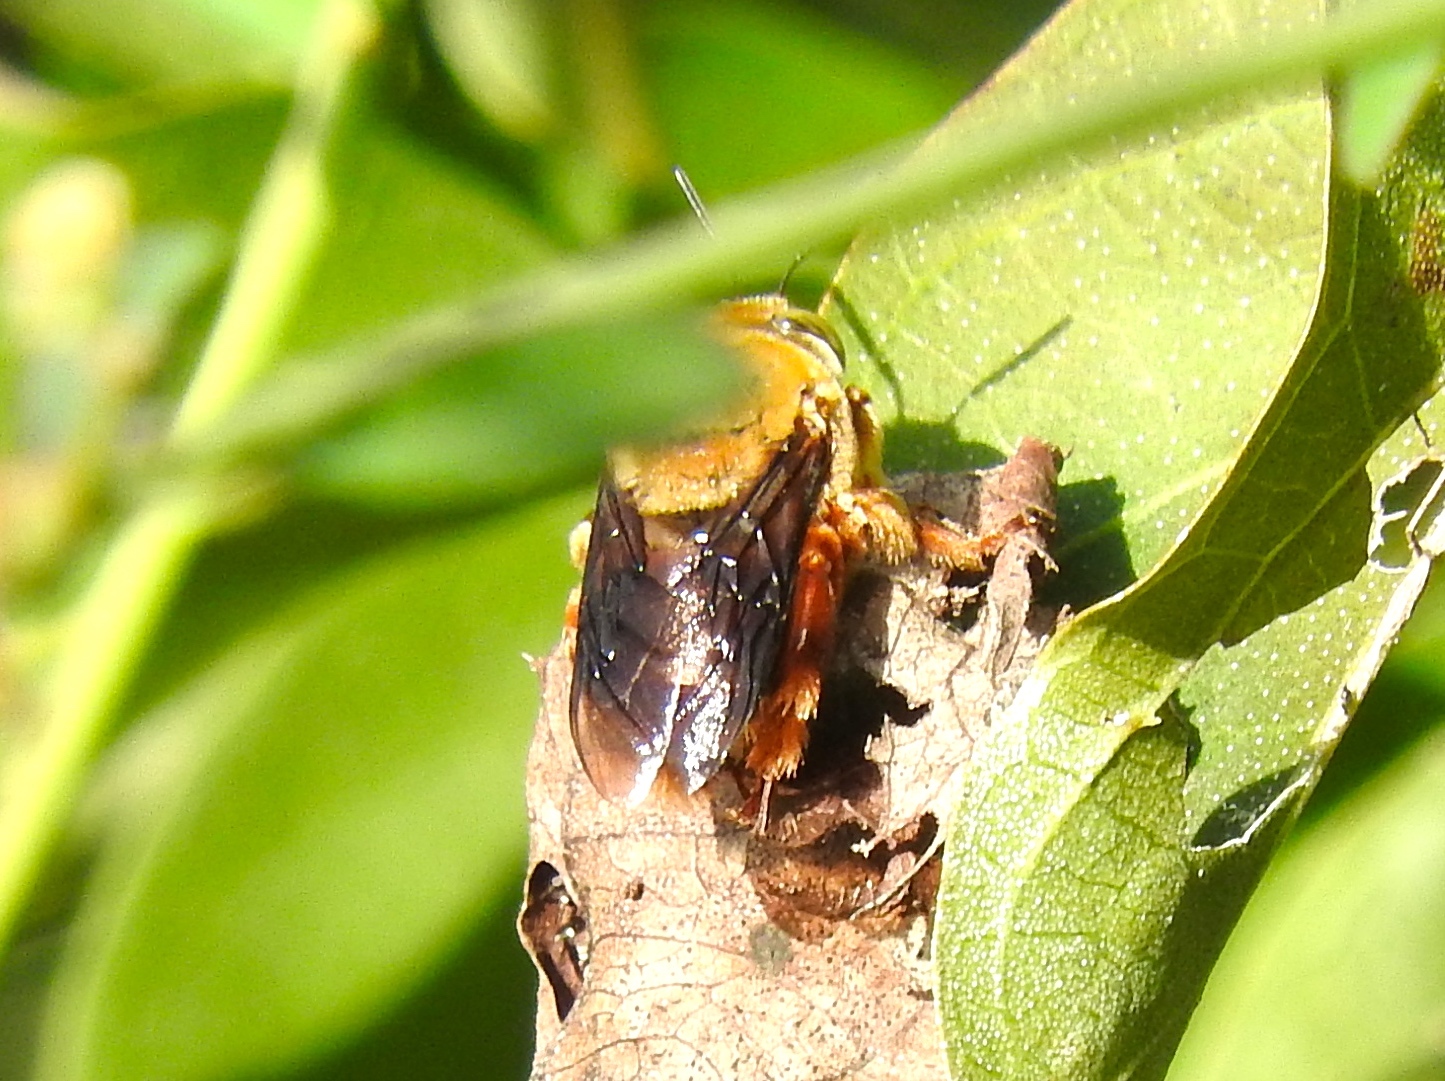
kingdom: Animalia
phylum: Arthropoda
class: Insecta
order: Hymenoptera
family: Apidae
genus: Centris
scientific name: Centris
